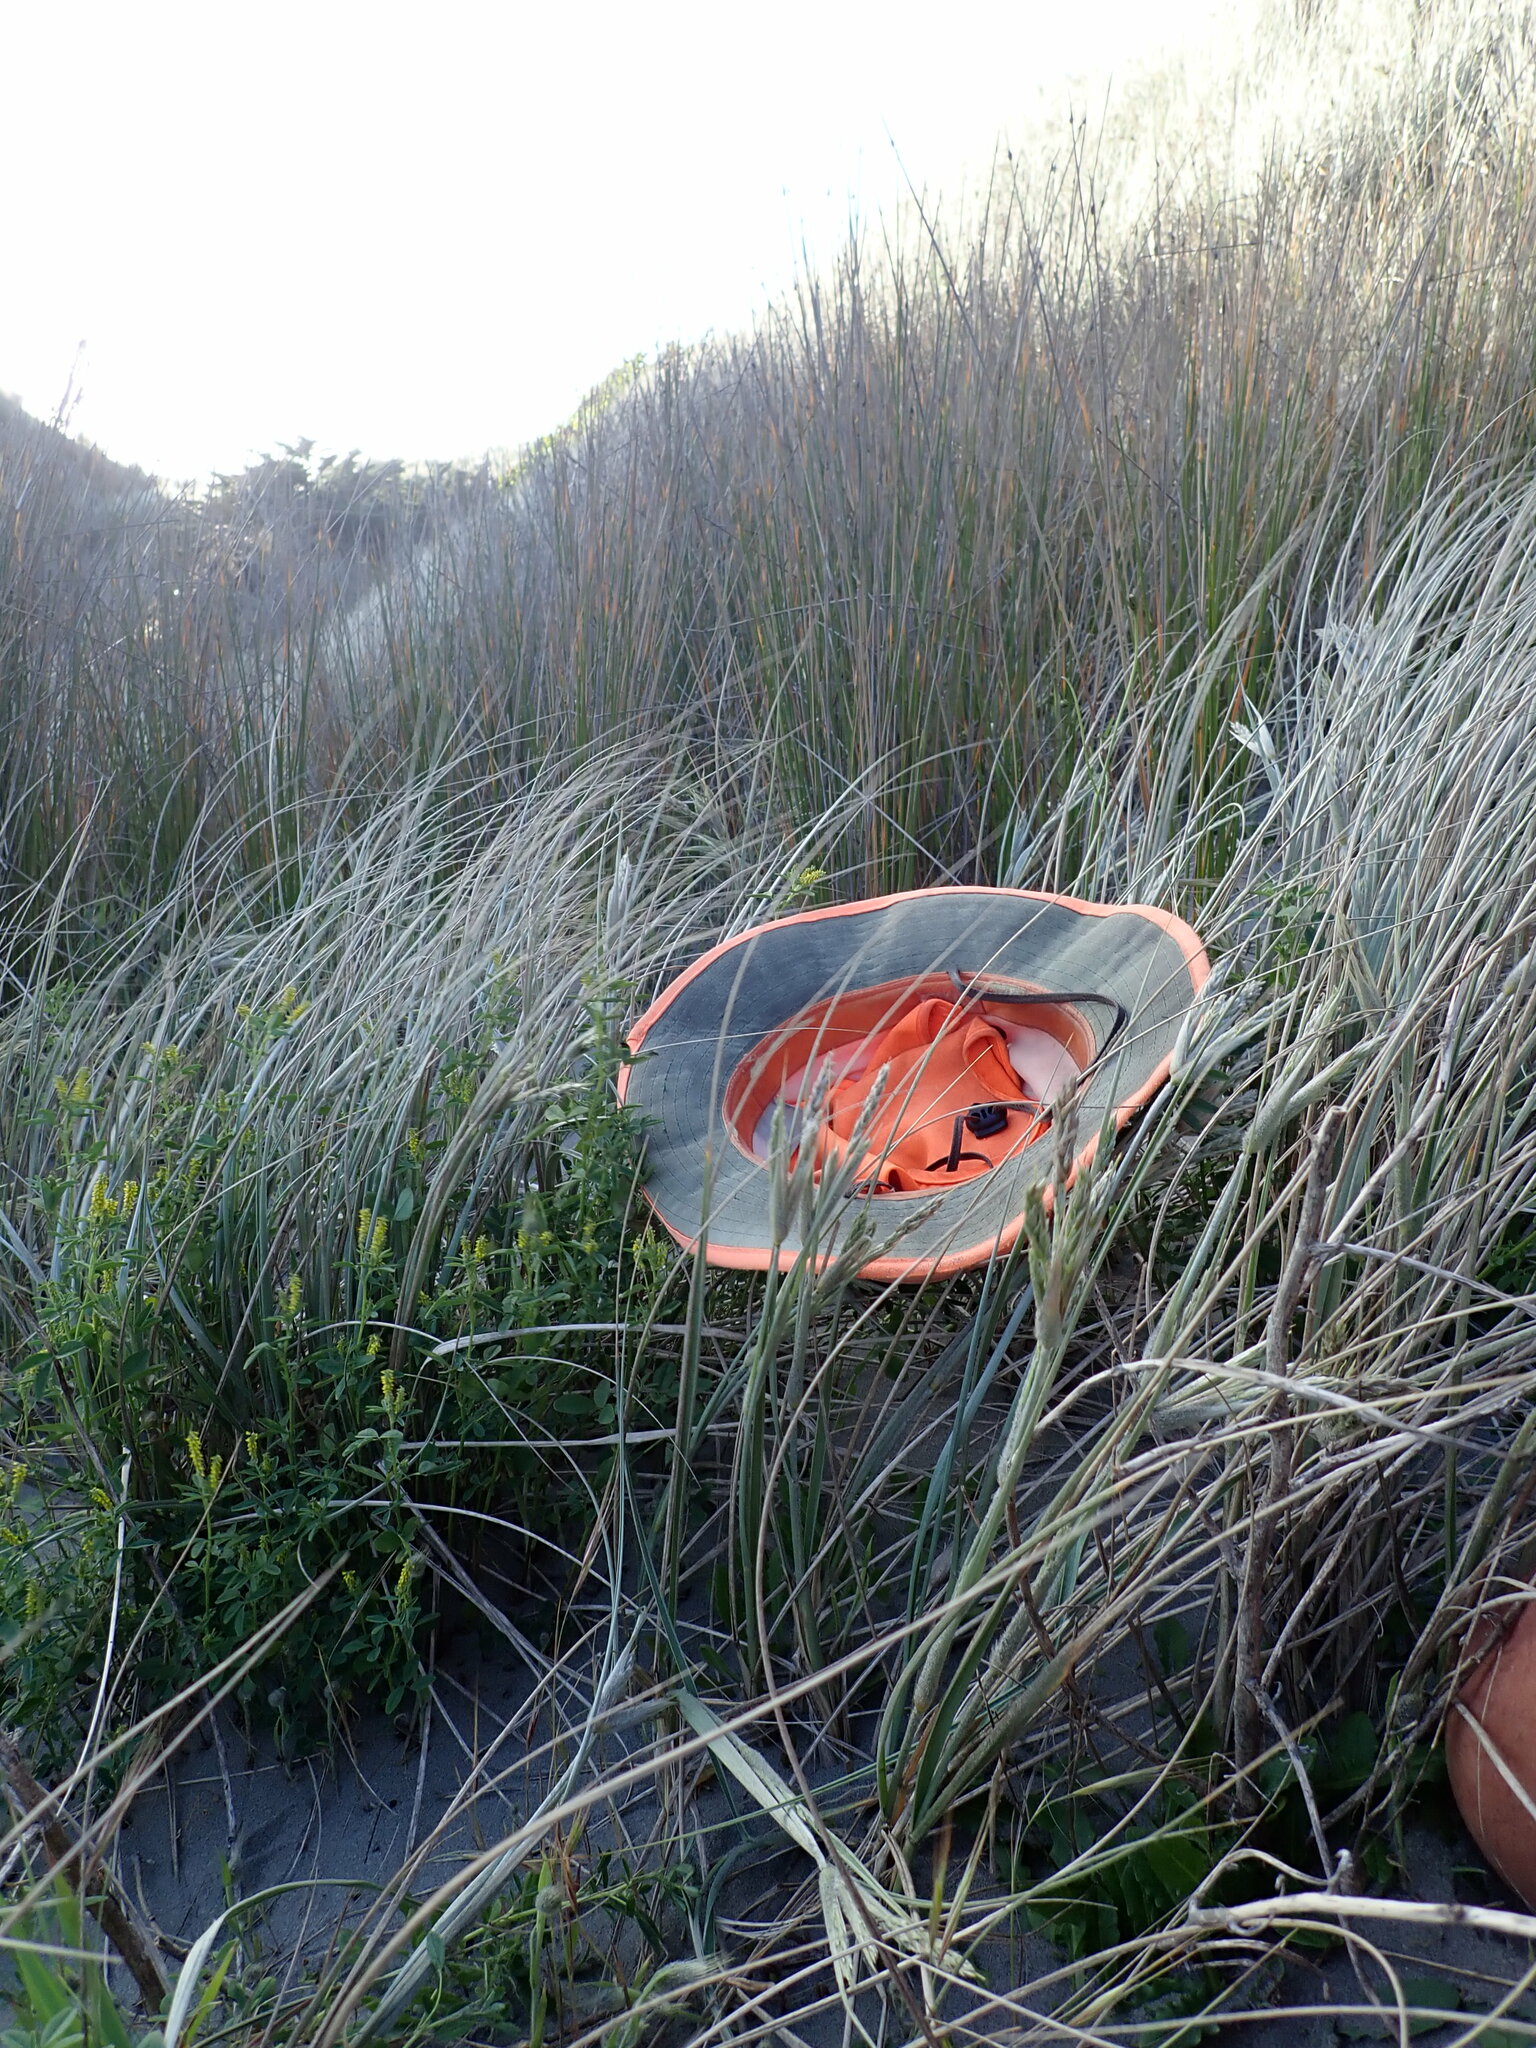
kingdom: Plantae
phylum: Tracheophyta
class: Magnoliopsida
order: Fabales
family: Fabaceae
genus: Melilotus
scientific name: Melilotus indicus
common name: Small melilot
